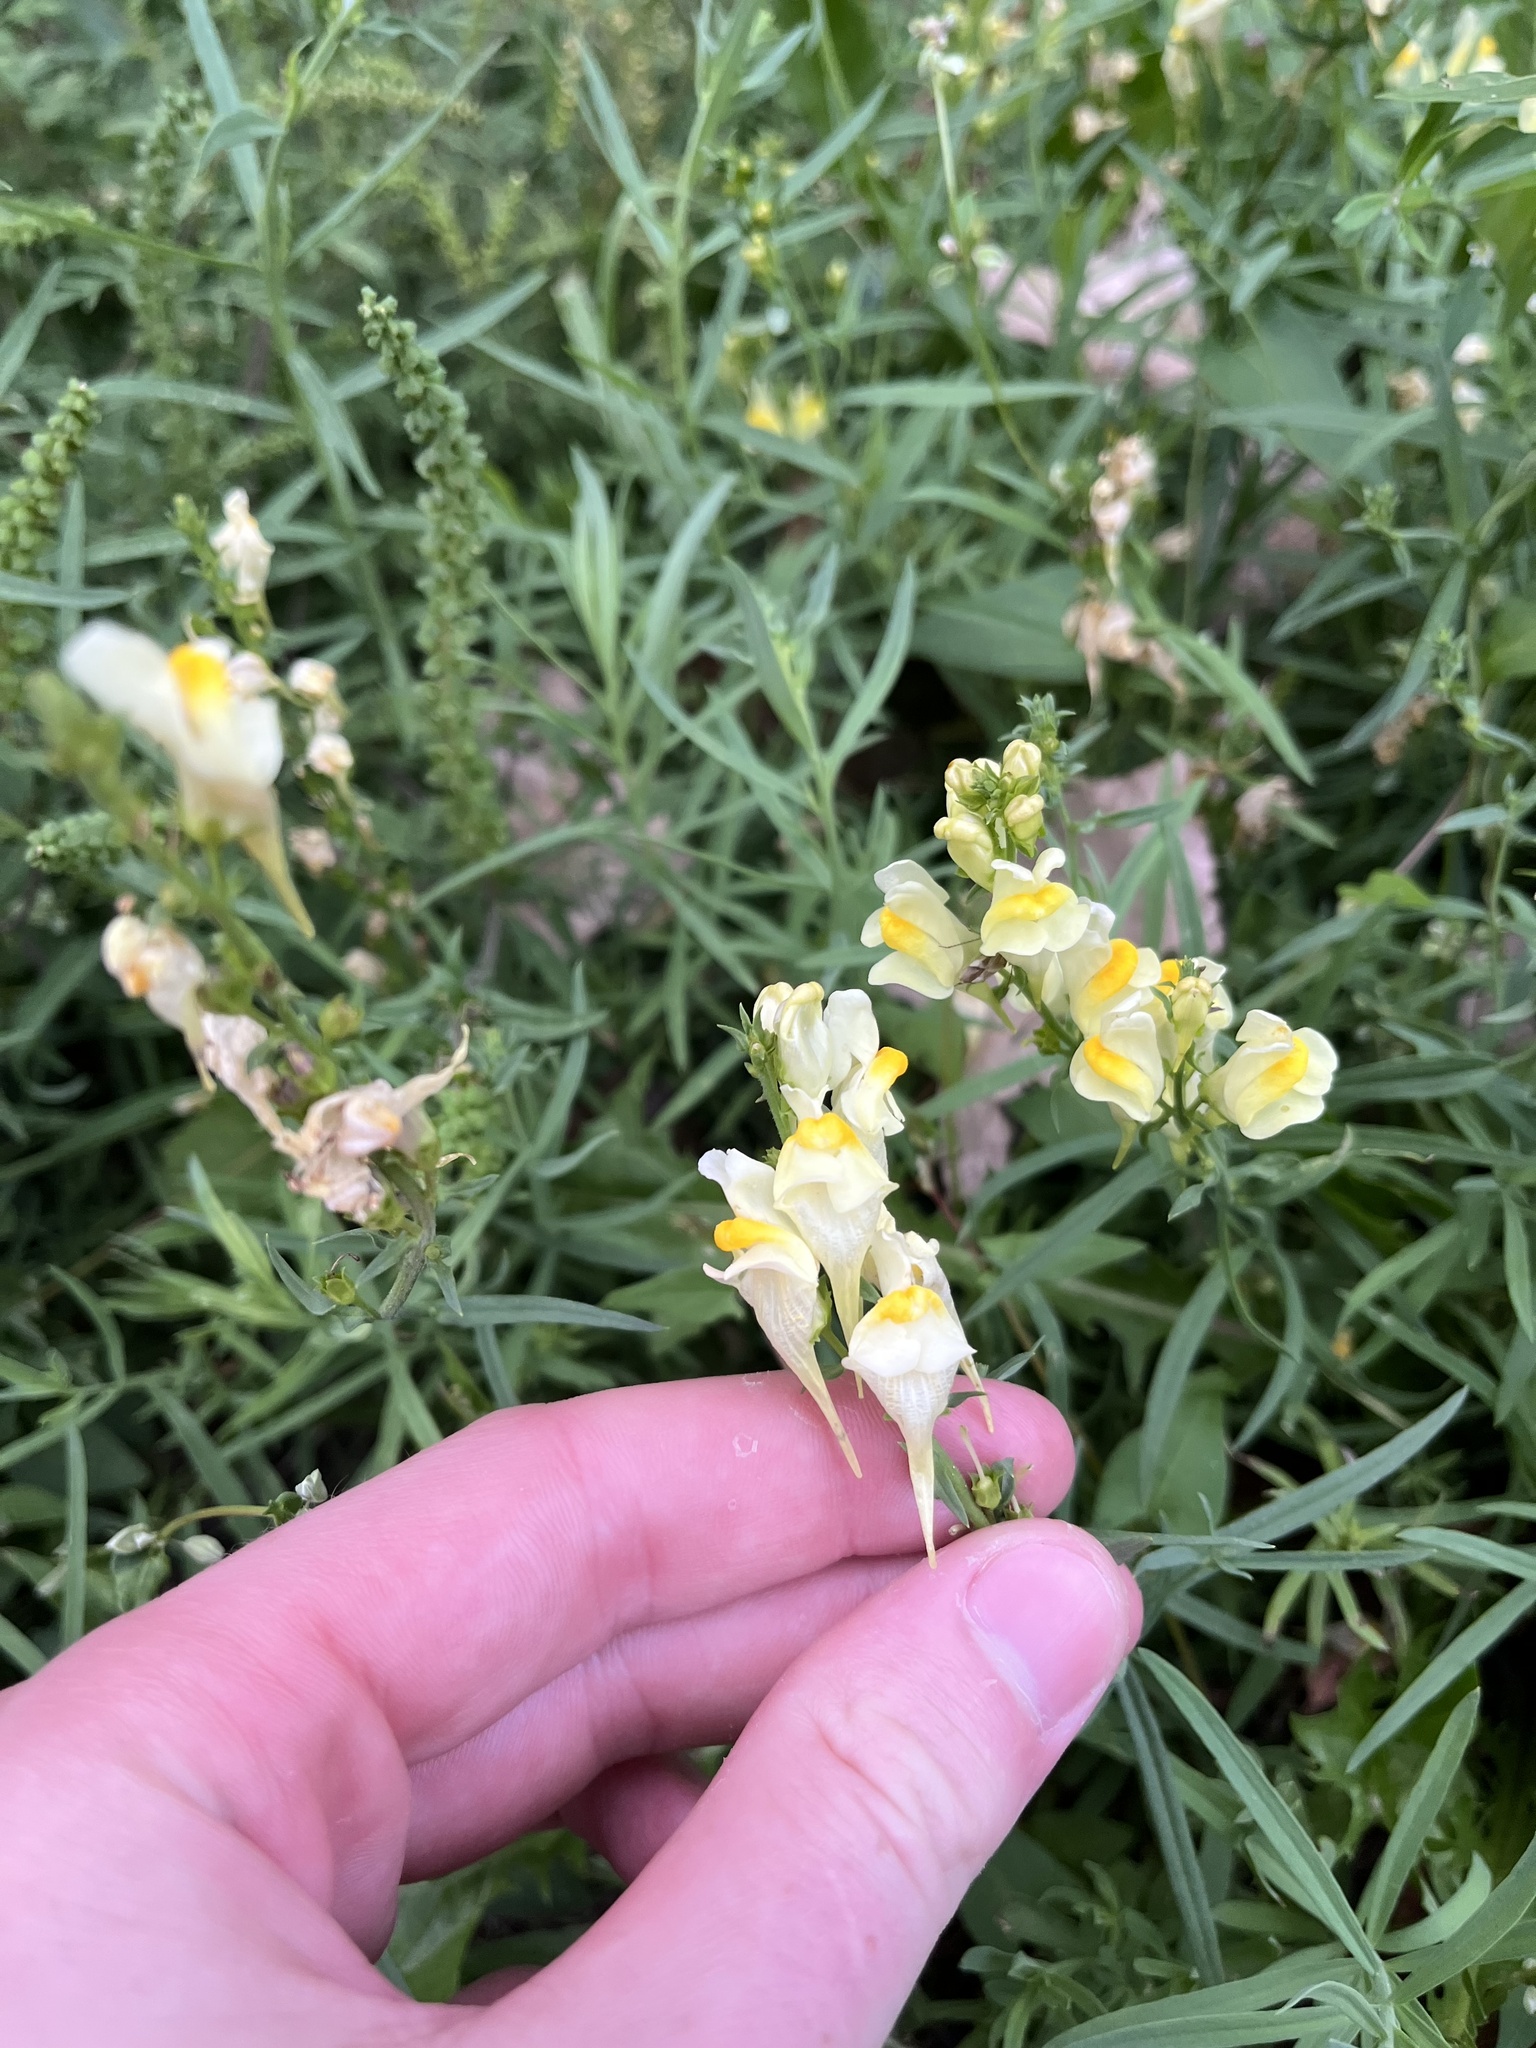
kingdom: Plantae
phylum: Tracheophyta
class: Magnoliopsida
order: Lamiales
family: Plantaginaceae
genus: Linaria
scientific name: Linaria vulgaris
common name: Butter and eggs
